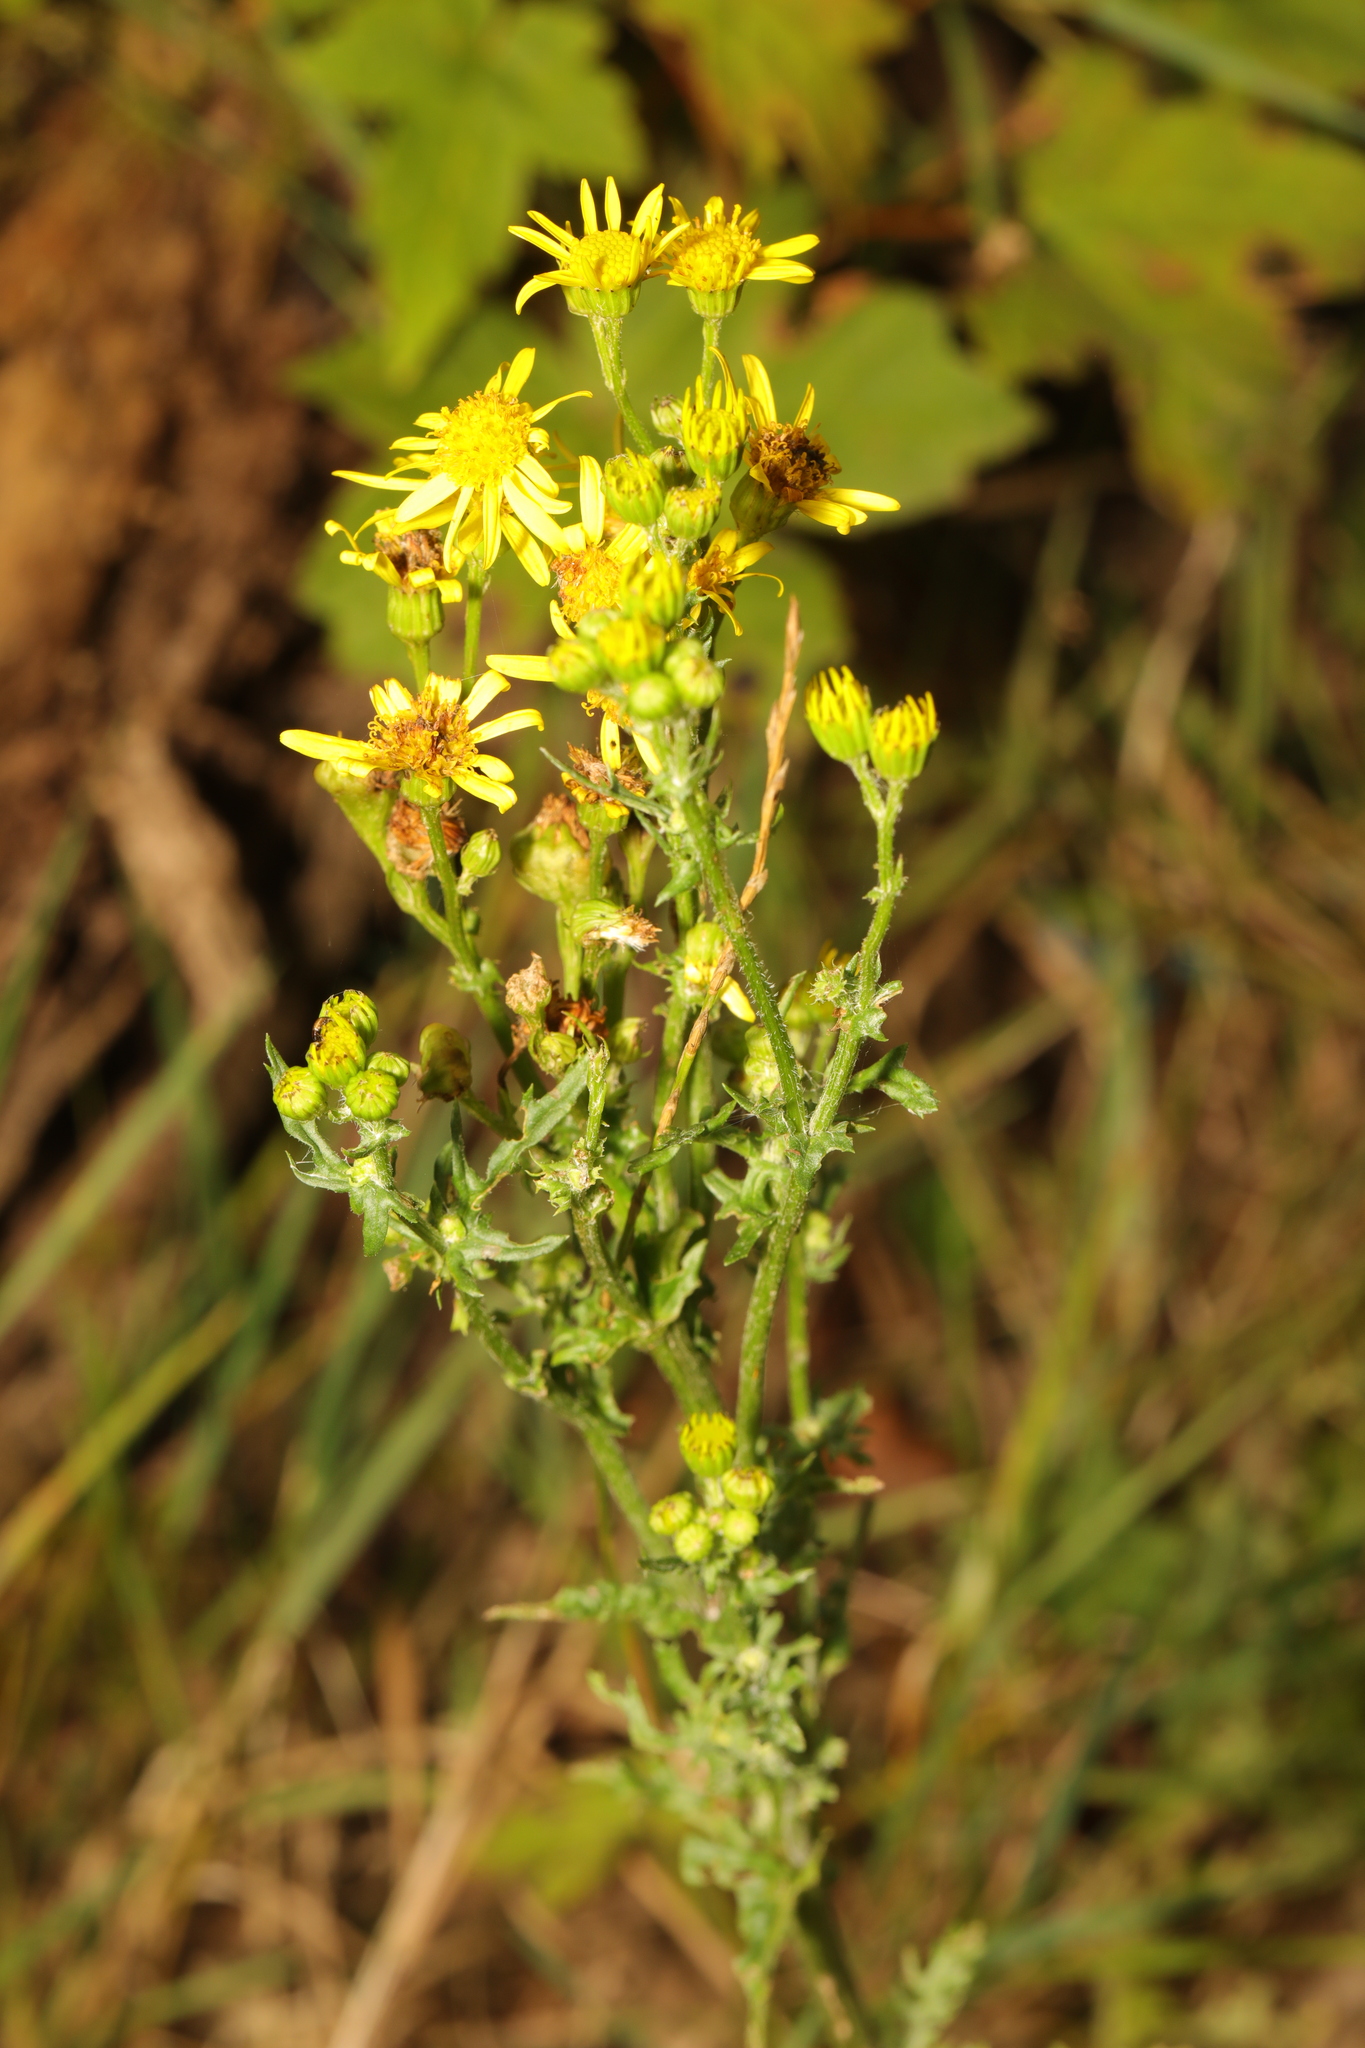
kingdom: Plantae
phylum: Tracheophyta
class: Magnoliopsida
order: Asterales
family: Asteraceae
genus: Jacobaea
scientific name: Jacobaea vulgaris
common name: Stinking willie
